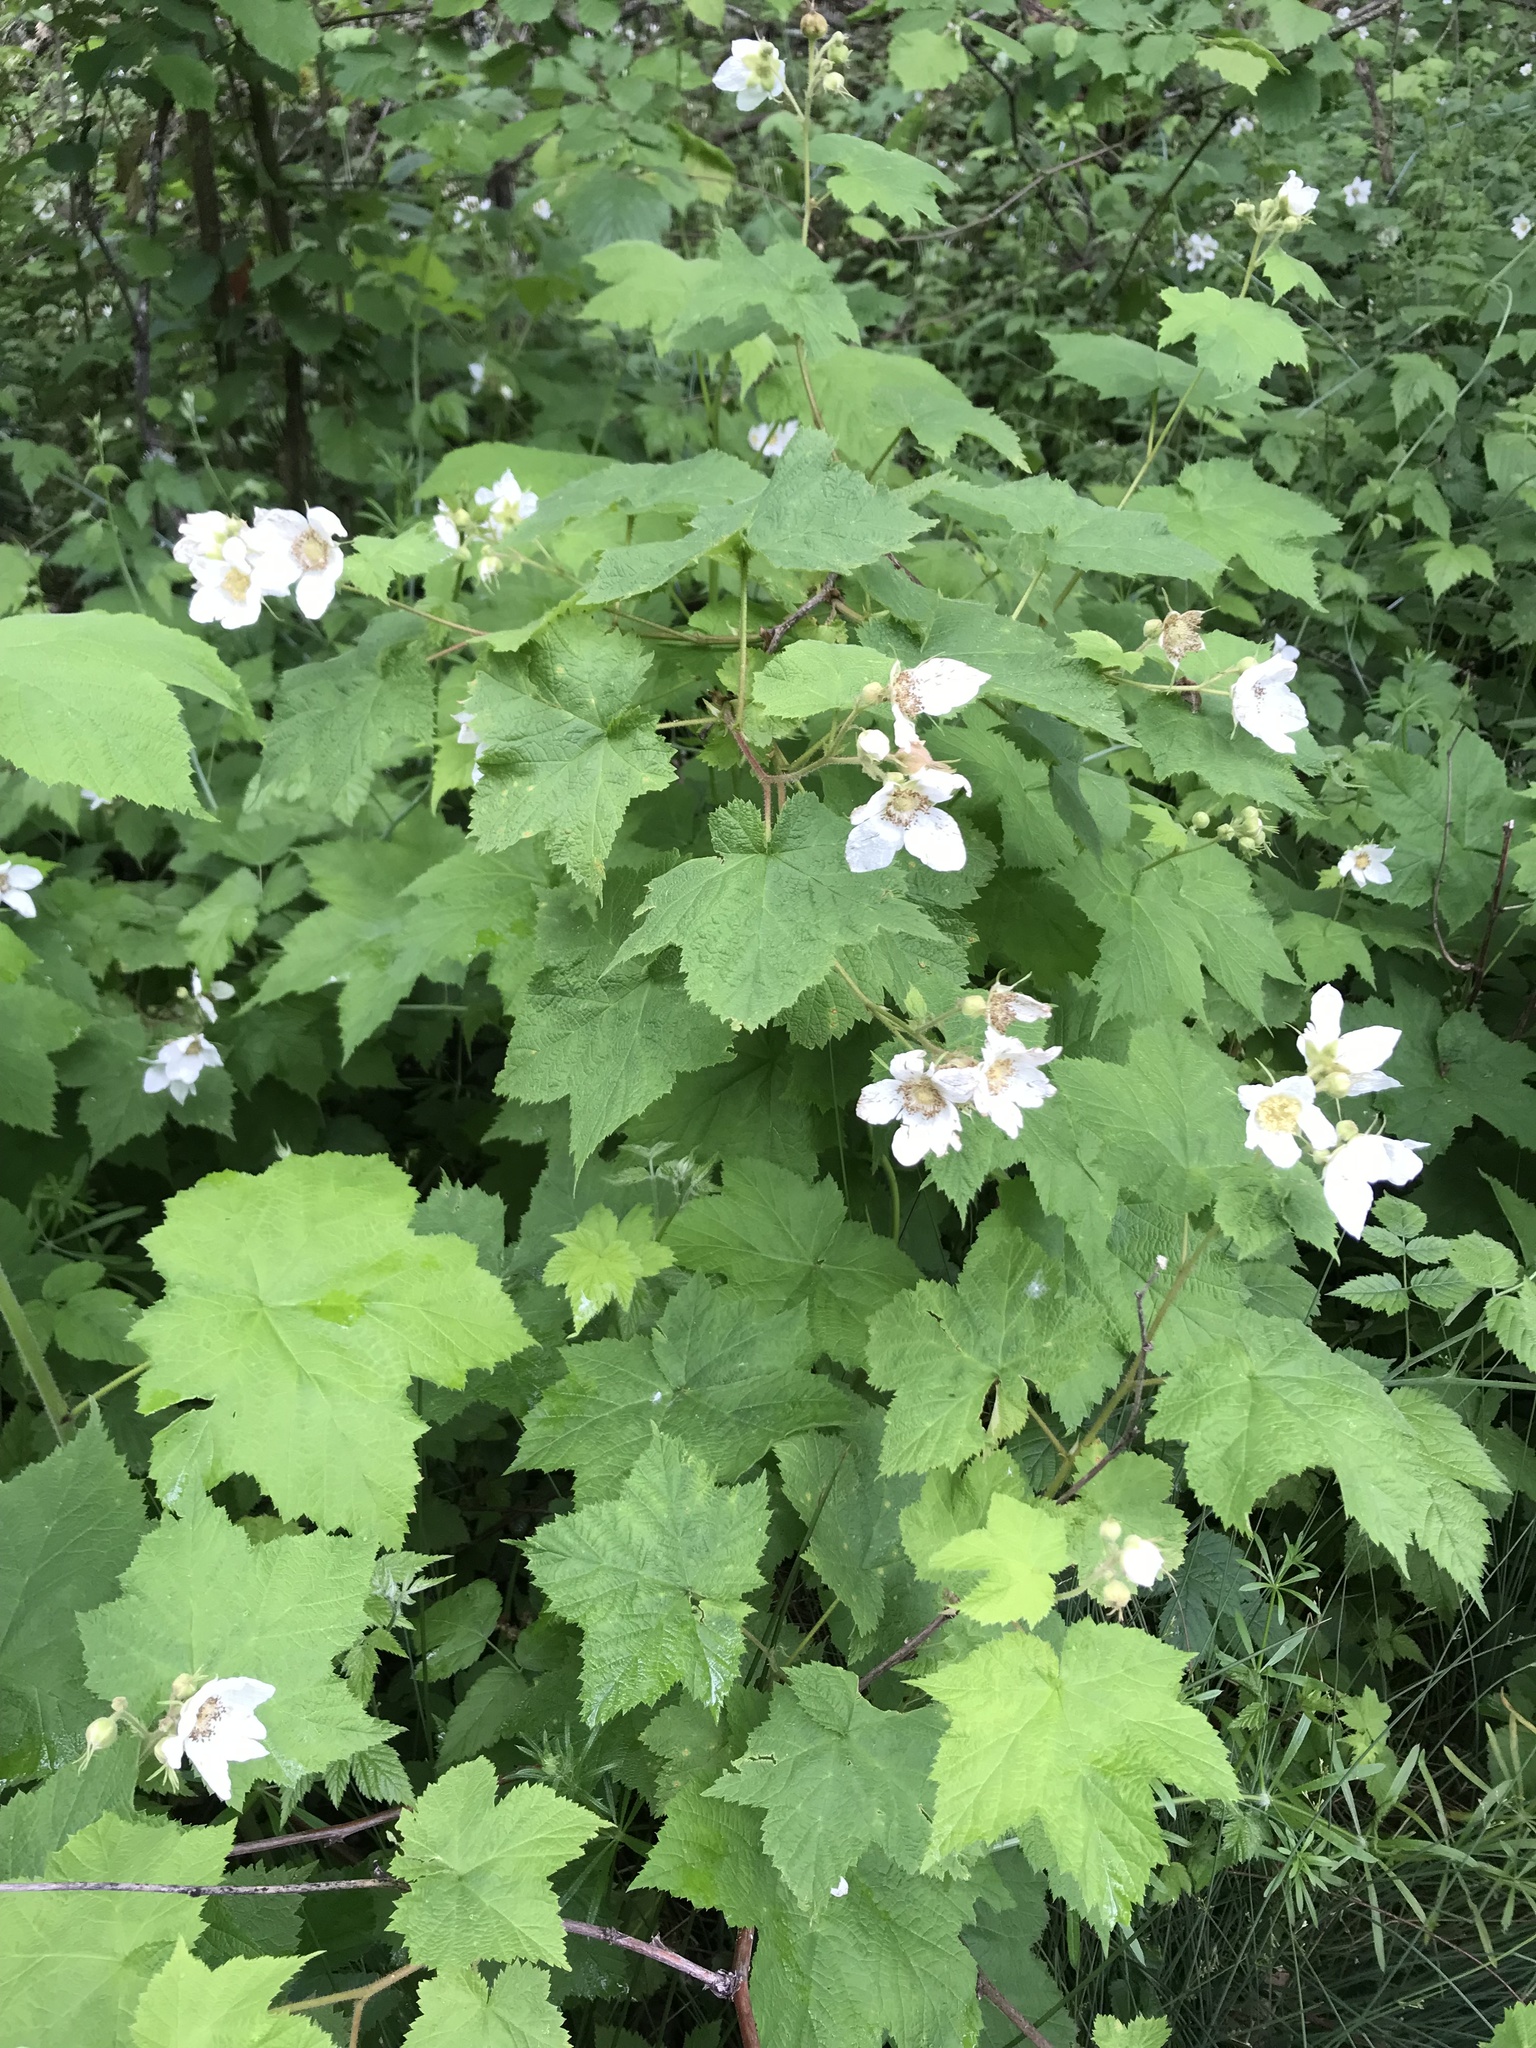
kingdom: Plantae
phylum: Tracheophyta
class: Magnoliopsida
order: Rosales
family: Rosaceae
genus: Rubus
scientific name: Rubus parviflorus
